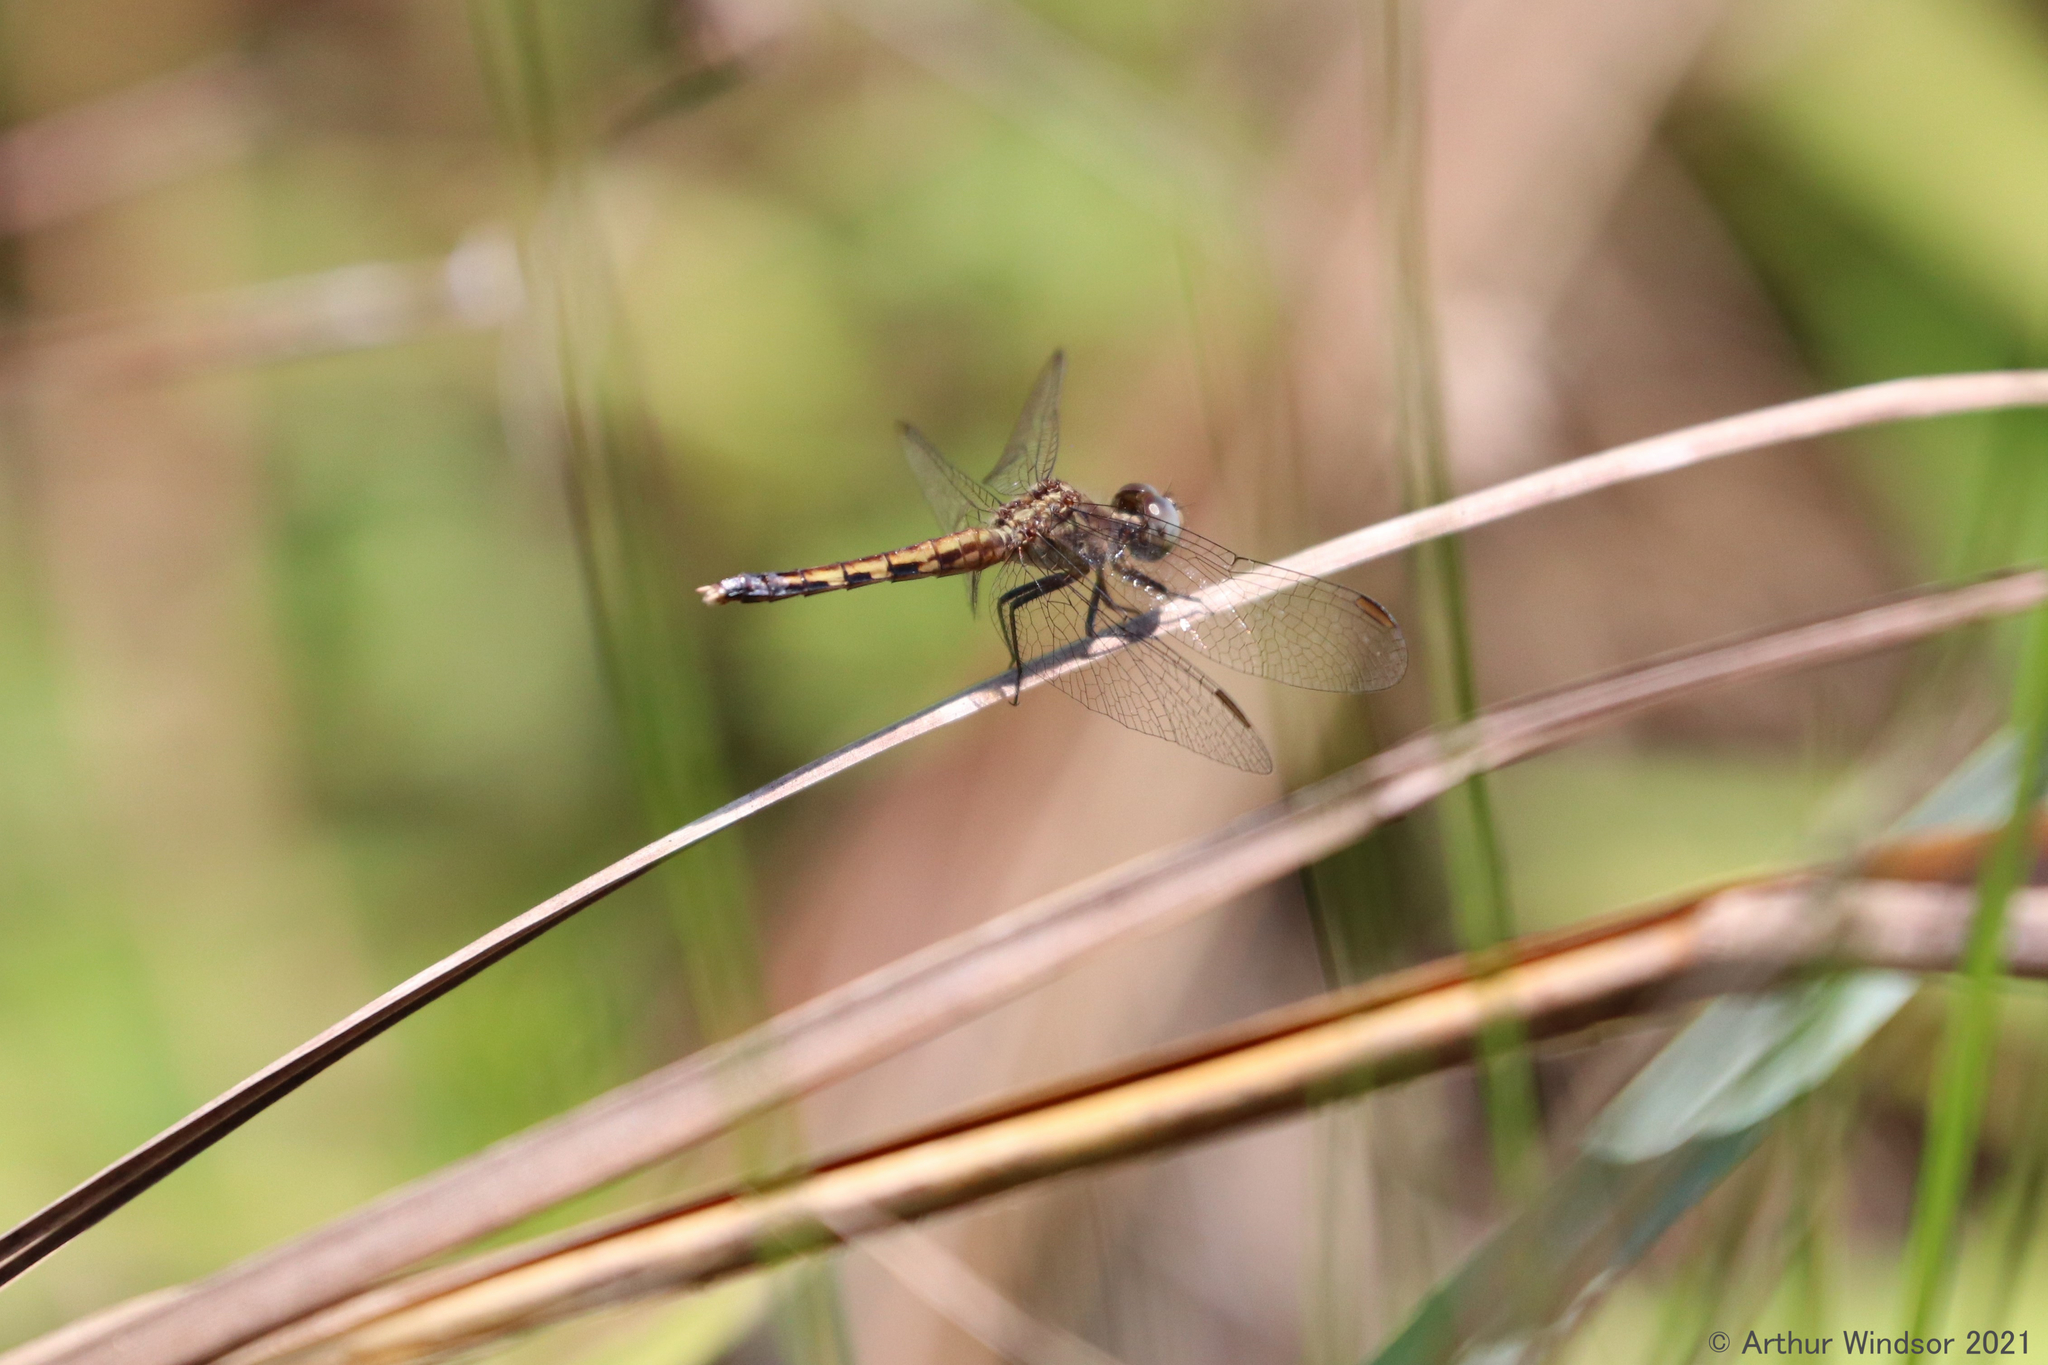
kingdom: Animalia
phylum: Arthropoda
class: Insecta
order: Odonata
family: Libellulidae
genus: Erythrodiplax
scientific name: Erythrodiplax minuscula
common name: Little blue dragonlet
